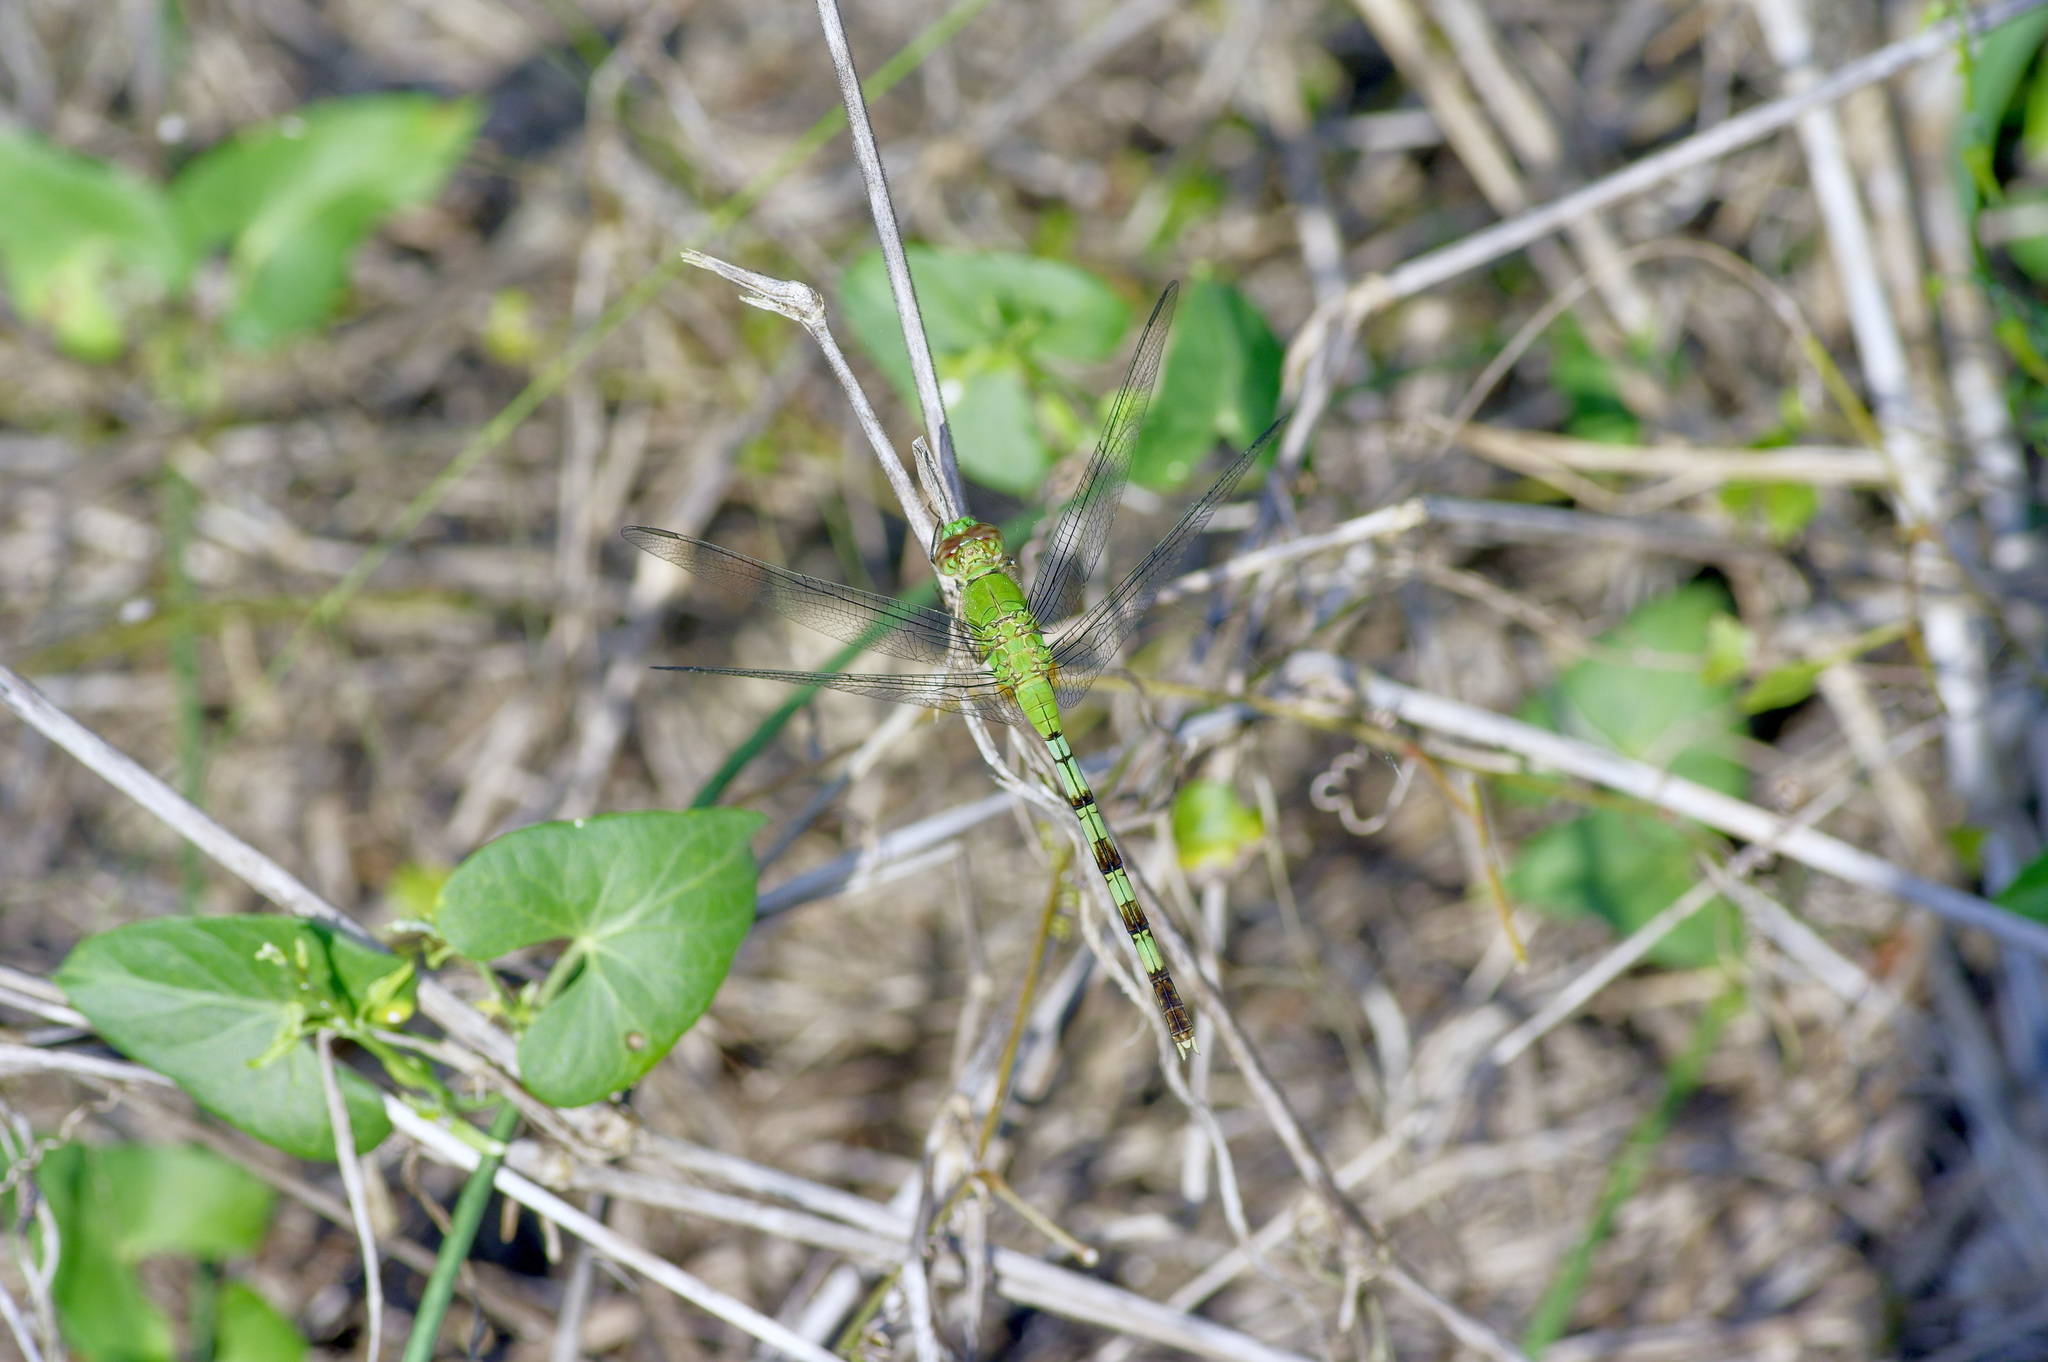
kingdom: Animalia
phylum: Arthropoda
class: Insecta
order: Odonata
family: Libellulidae
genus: Erythemis
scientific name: Erythemis vesiculosa
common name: Great pondhawk
